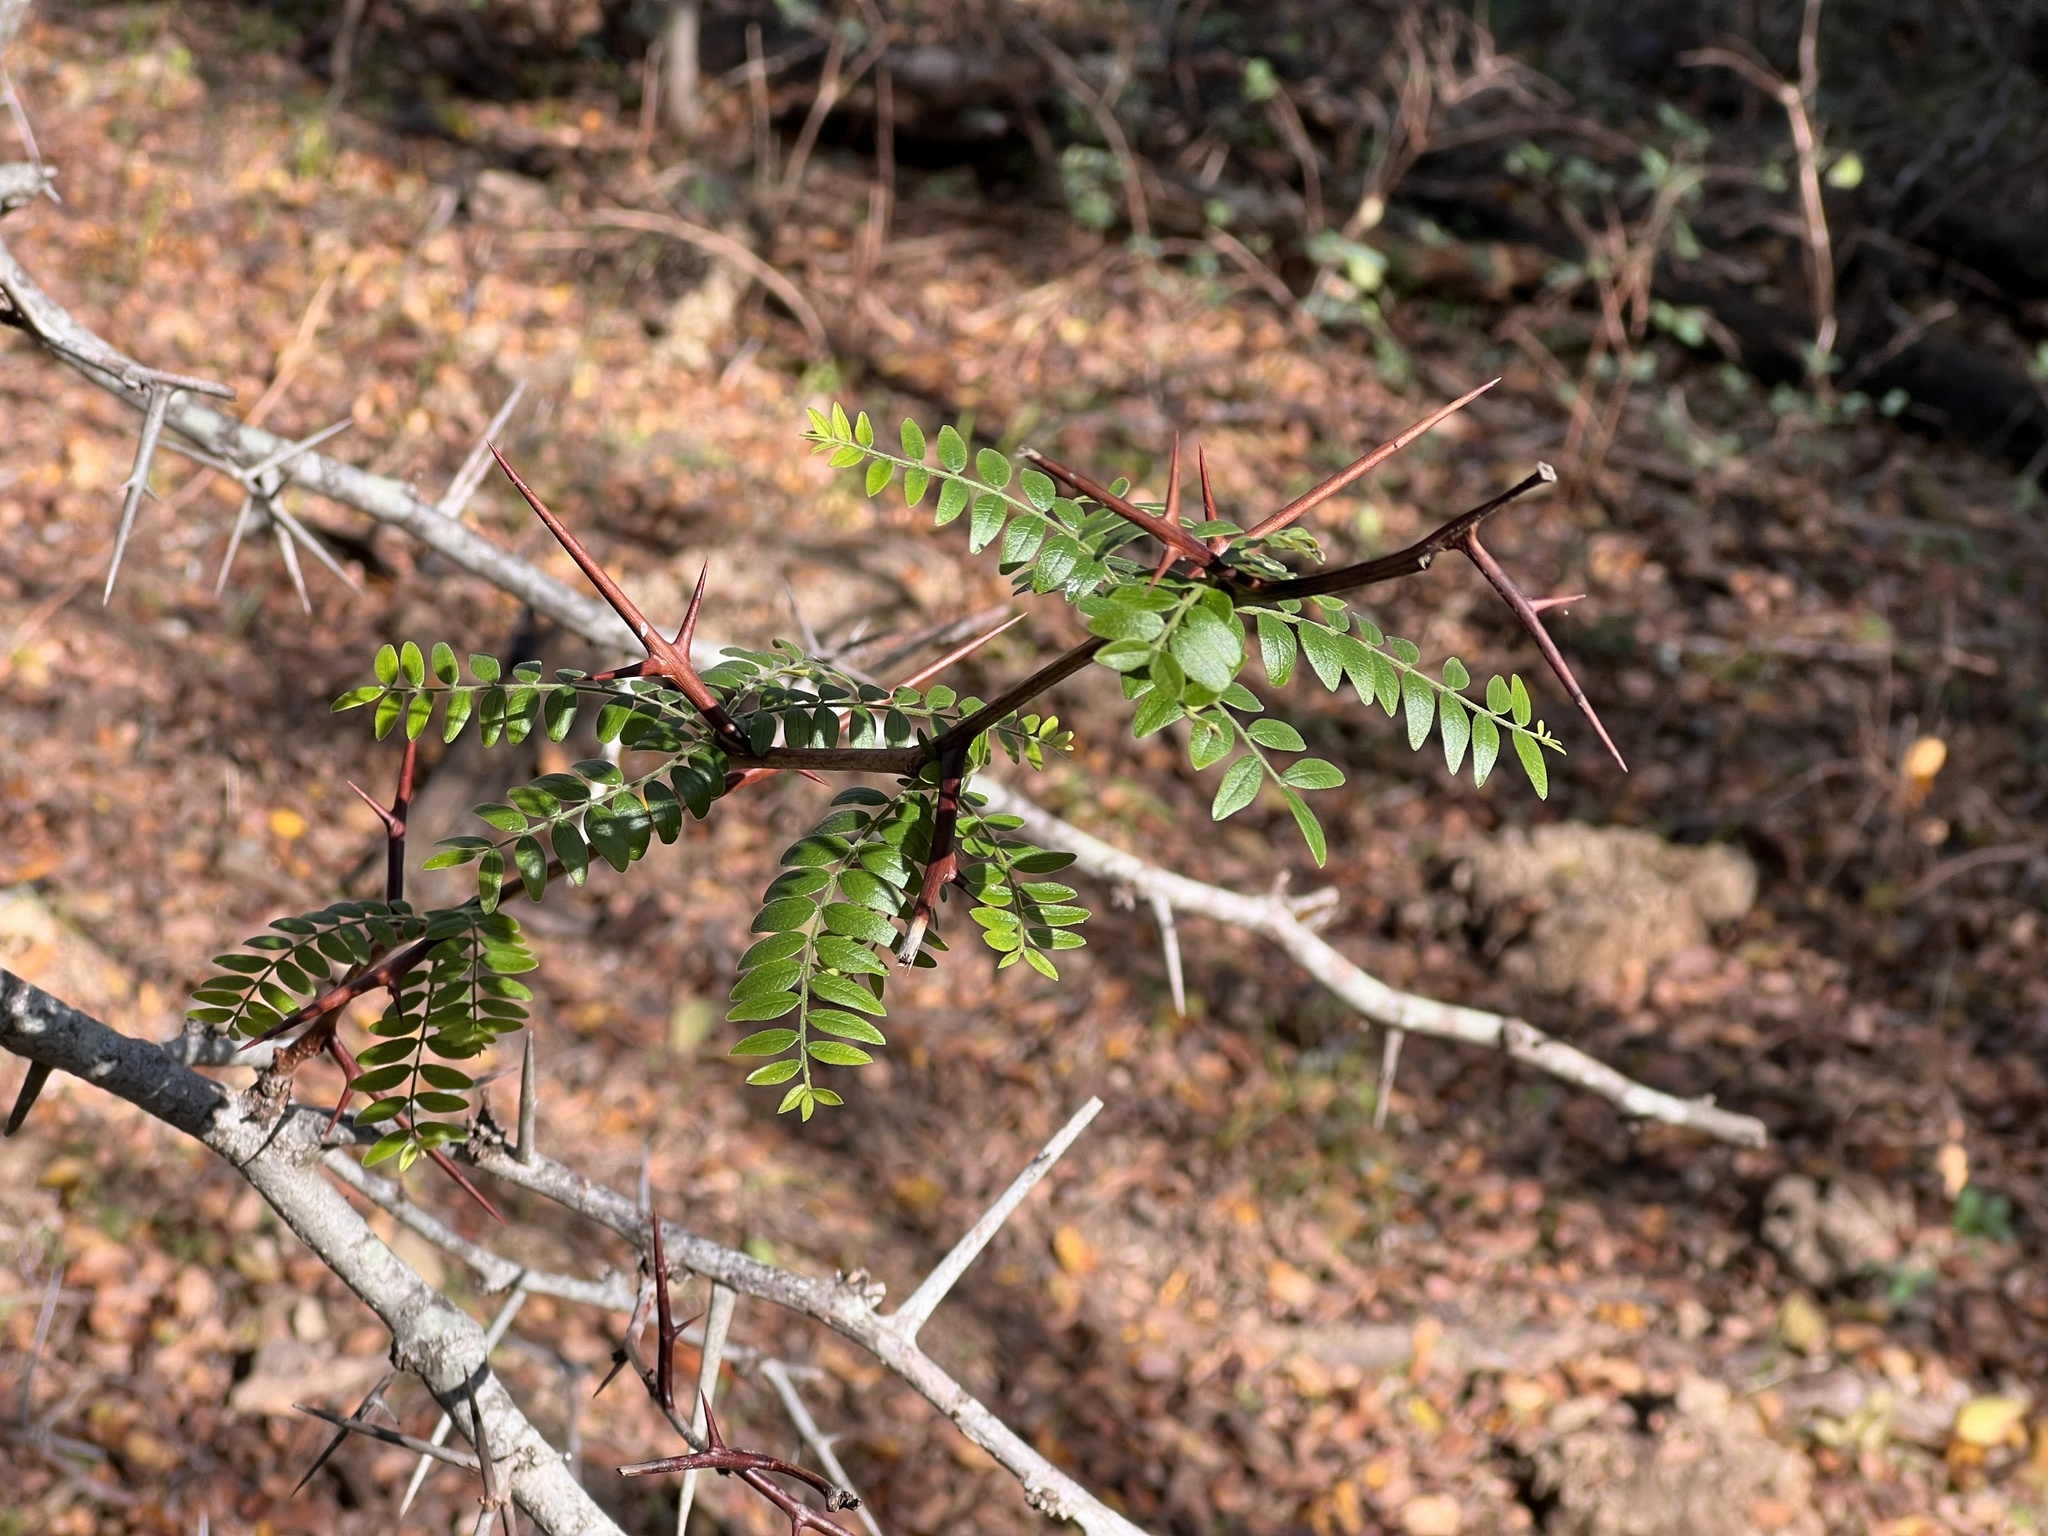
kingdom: Plantae
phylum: Tracheophyta
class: Magnoliopsida
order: Fabales
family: Fabaceae
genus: Gleditsia
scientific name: Gleditsia triacanthos
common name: Common honeylocust
